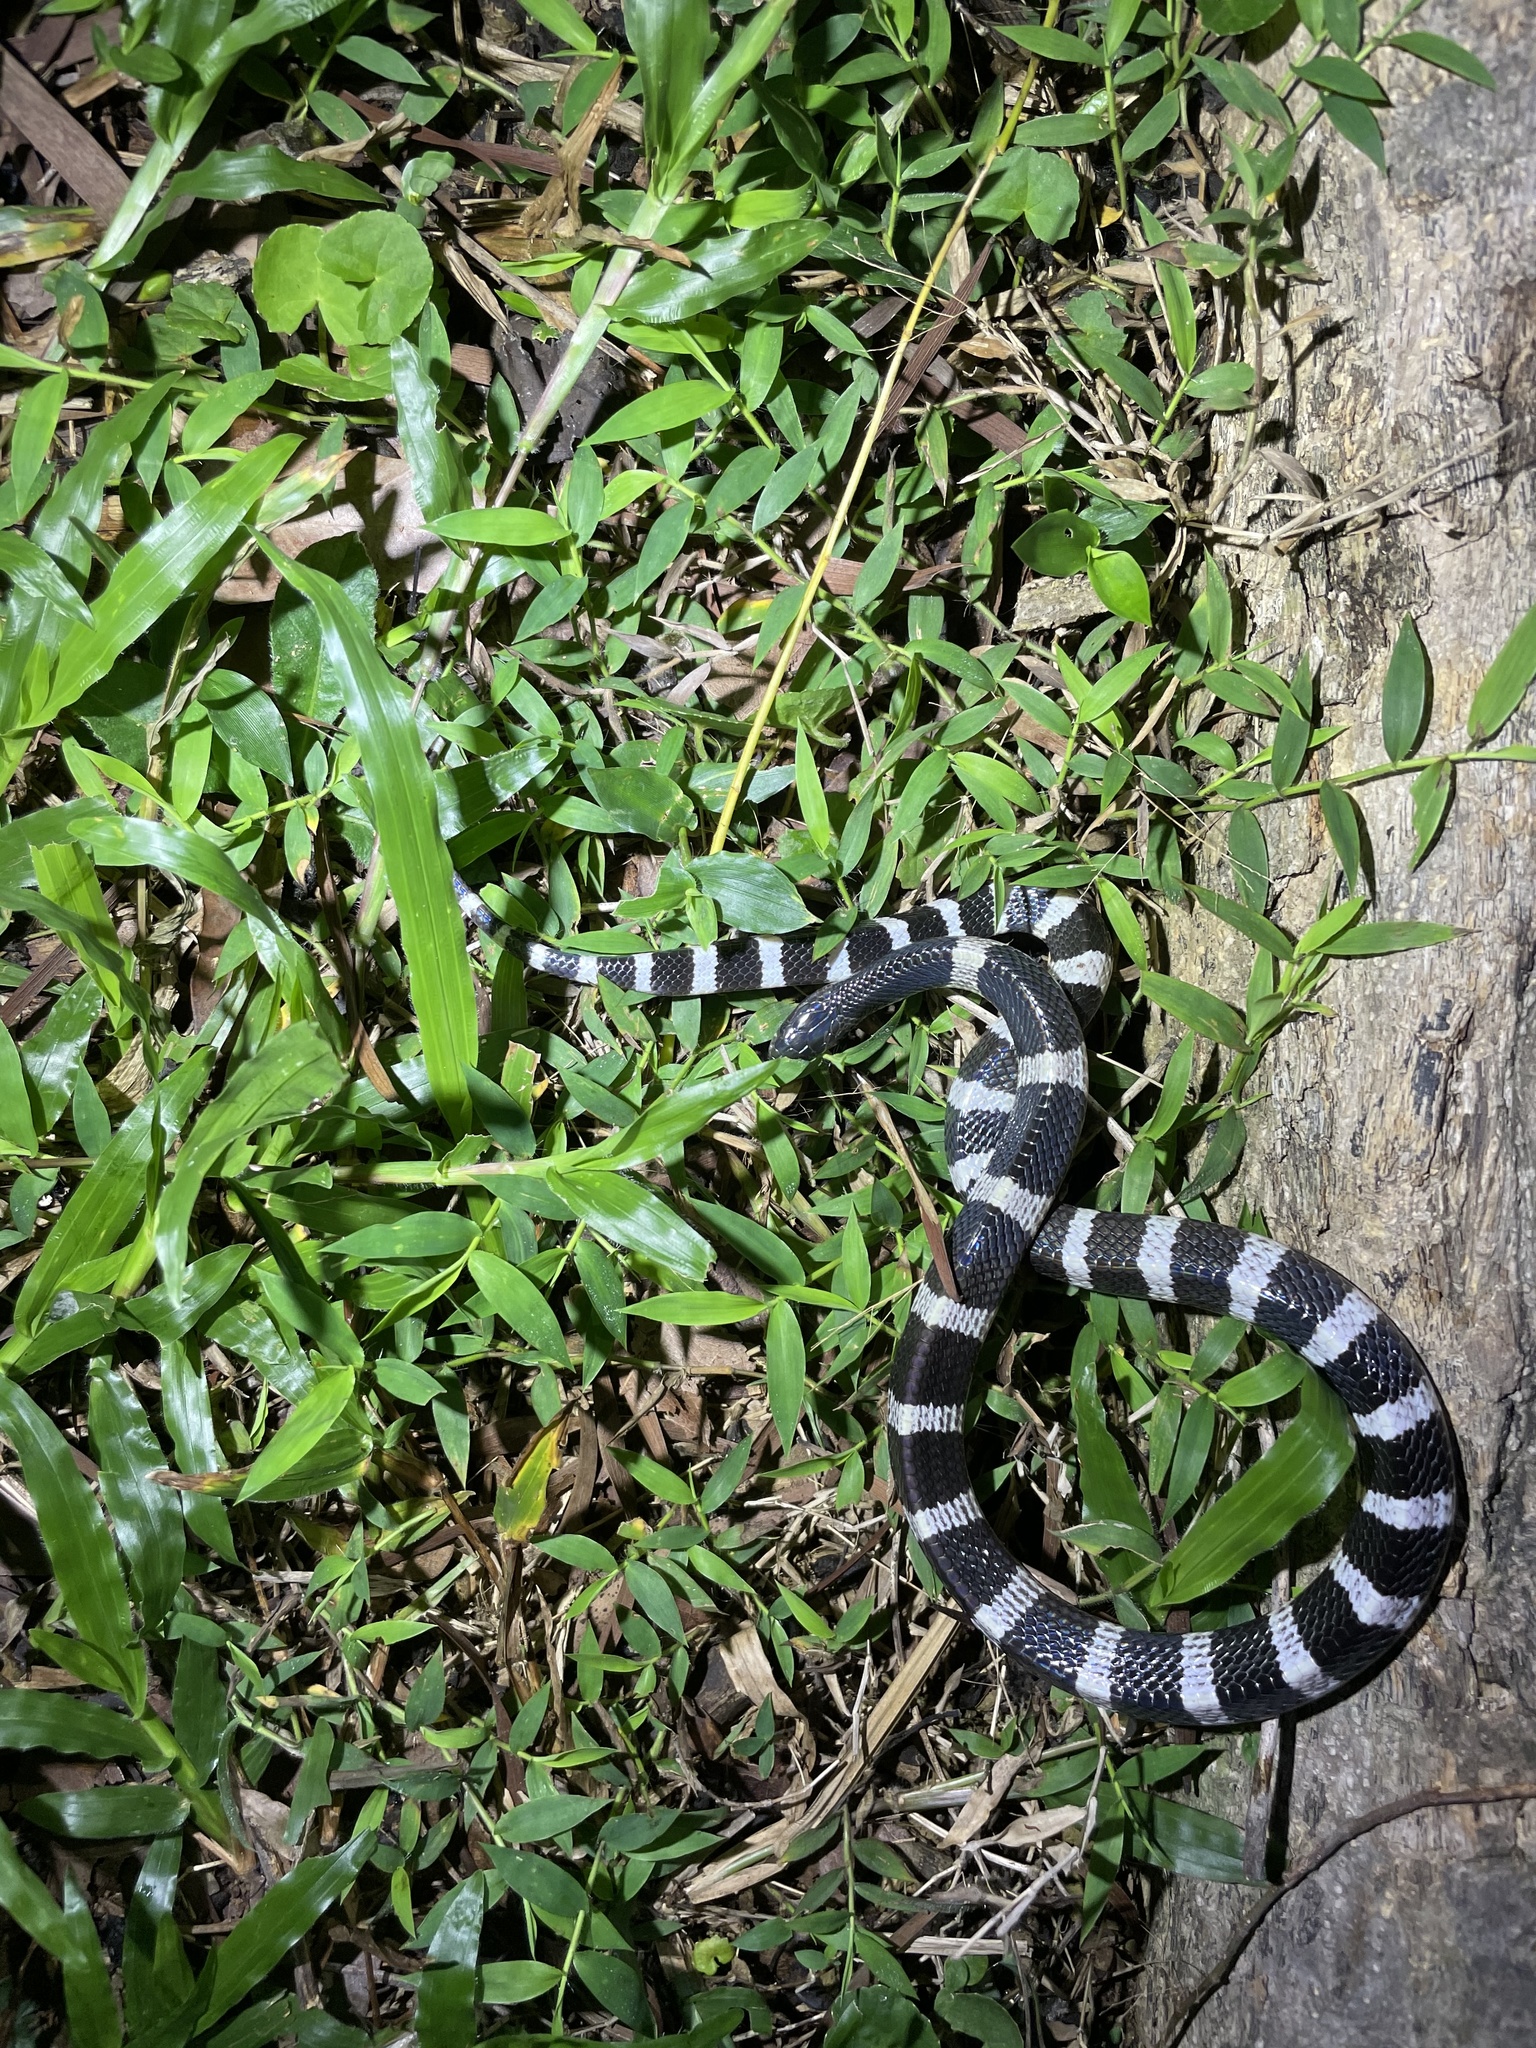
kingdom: Animalia
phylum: Chordata
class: Squamata
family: Elapidae
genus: Bungarus
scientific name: Bungarus multicinctus
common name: Many-banded krait
